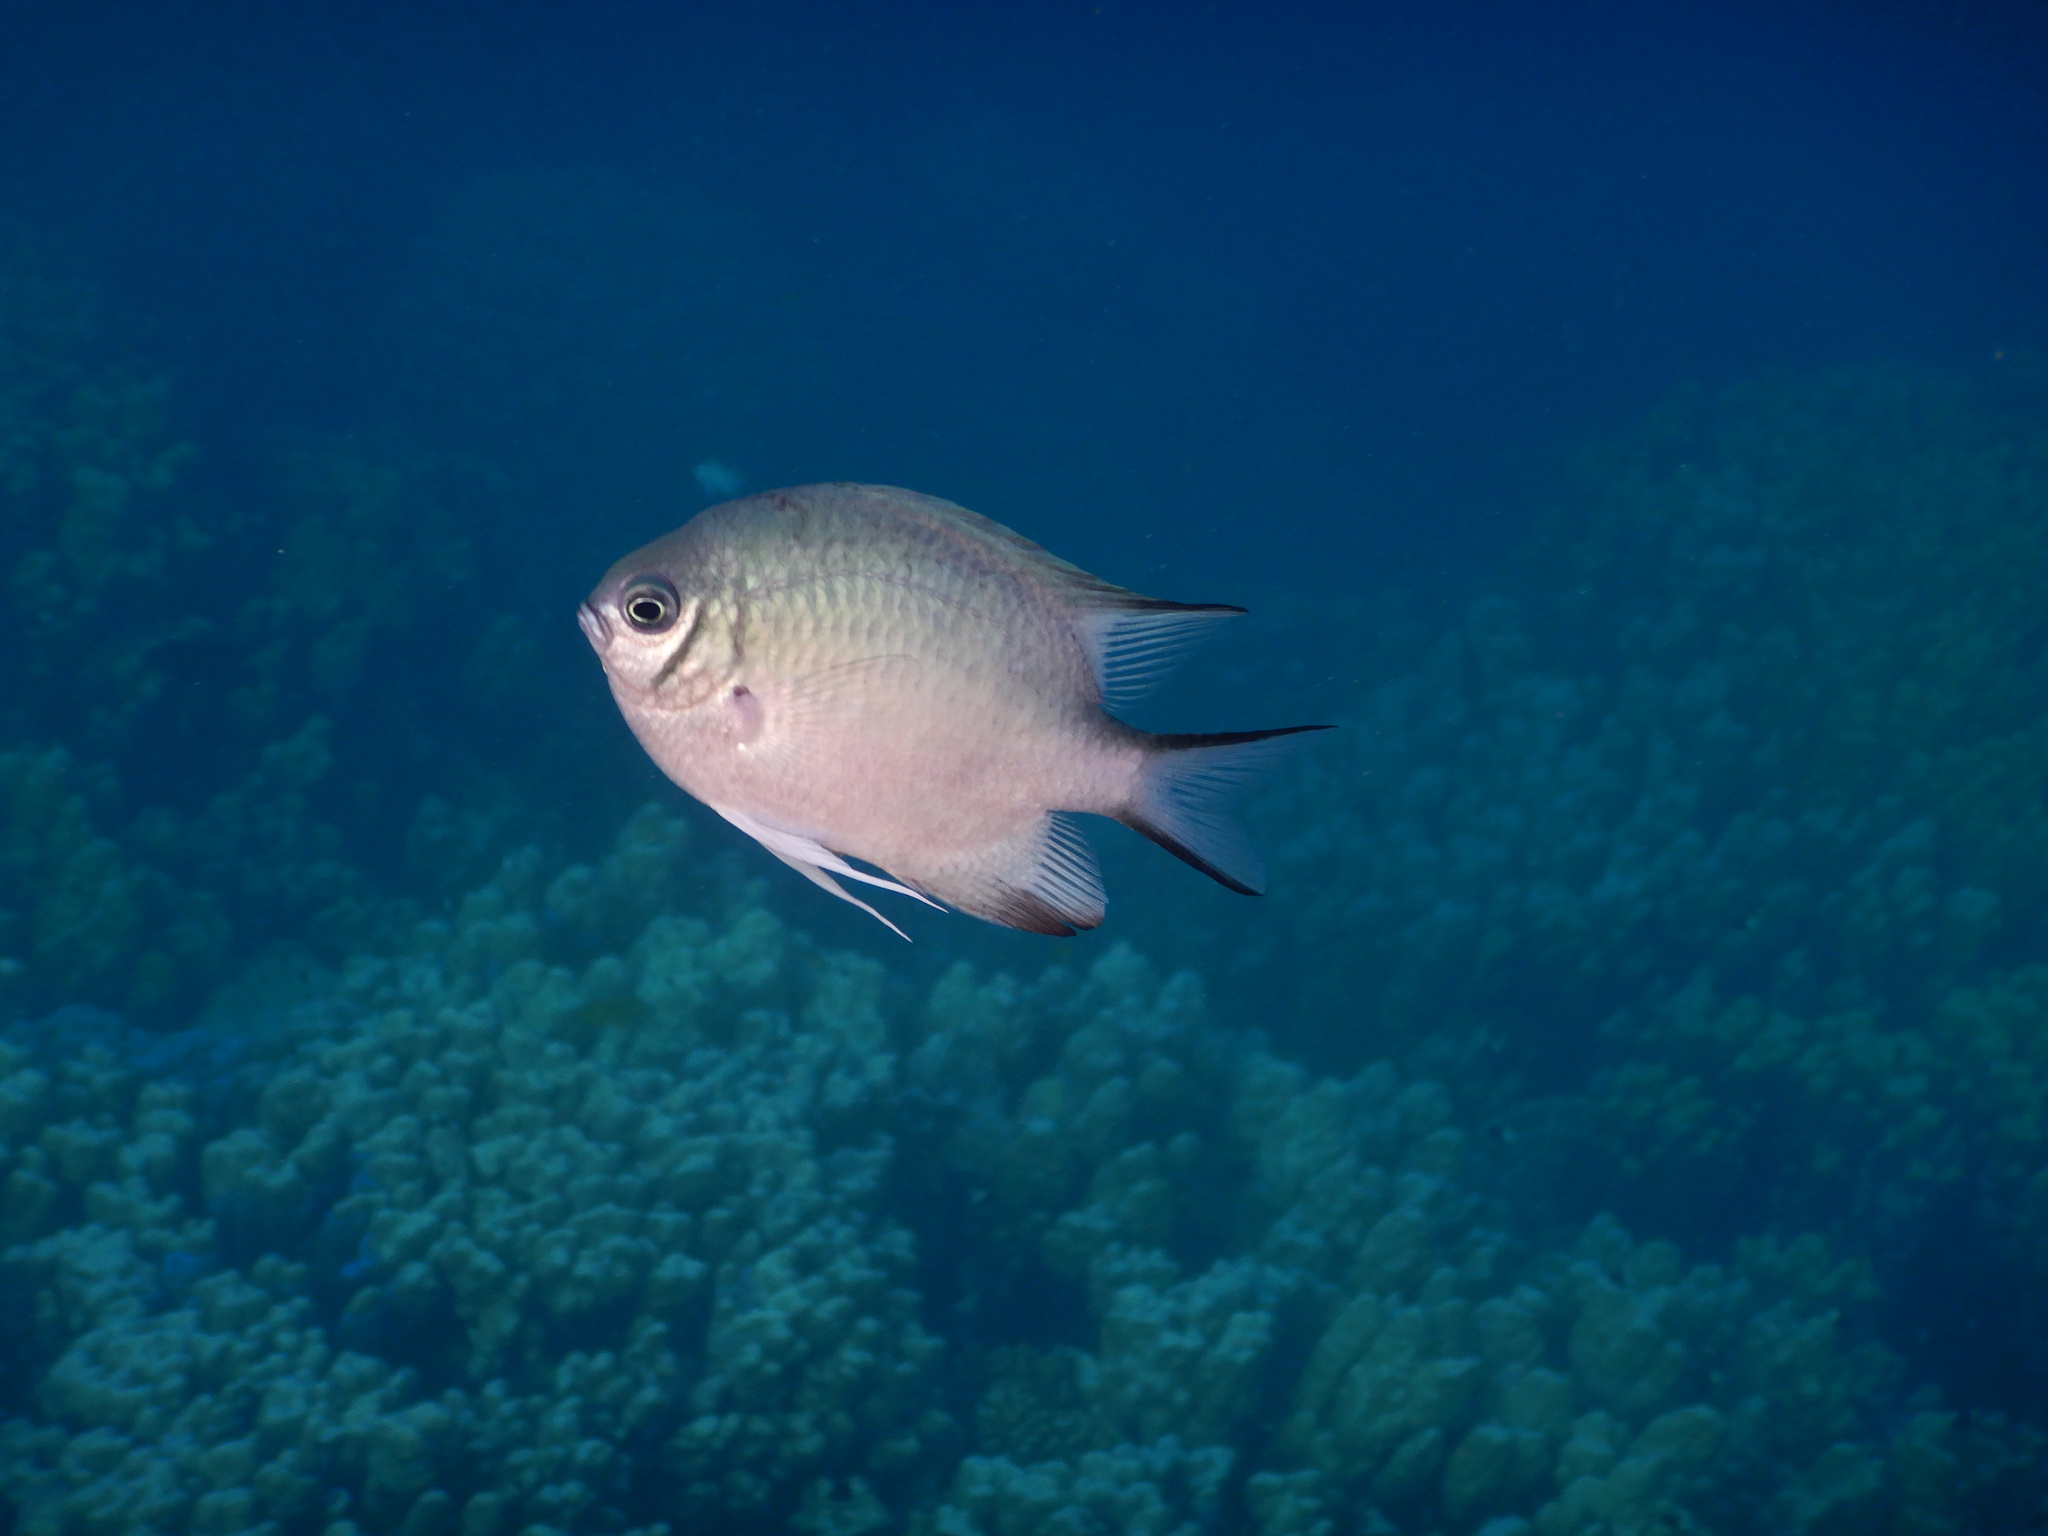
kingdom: Animalia
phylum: Chordata
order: Perciformes
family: Pomacentridae
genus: Amblyglyphidodon
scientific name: Amblyglyphidodon indicus
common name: Maldives damselfish
